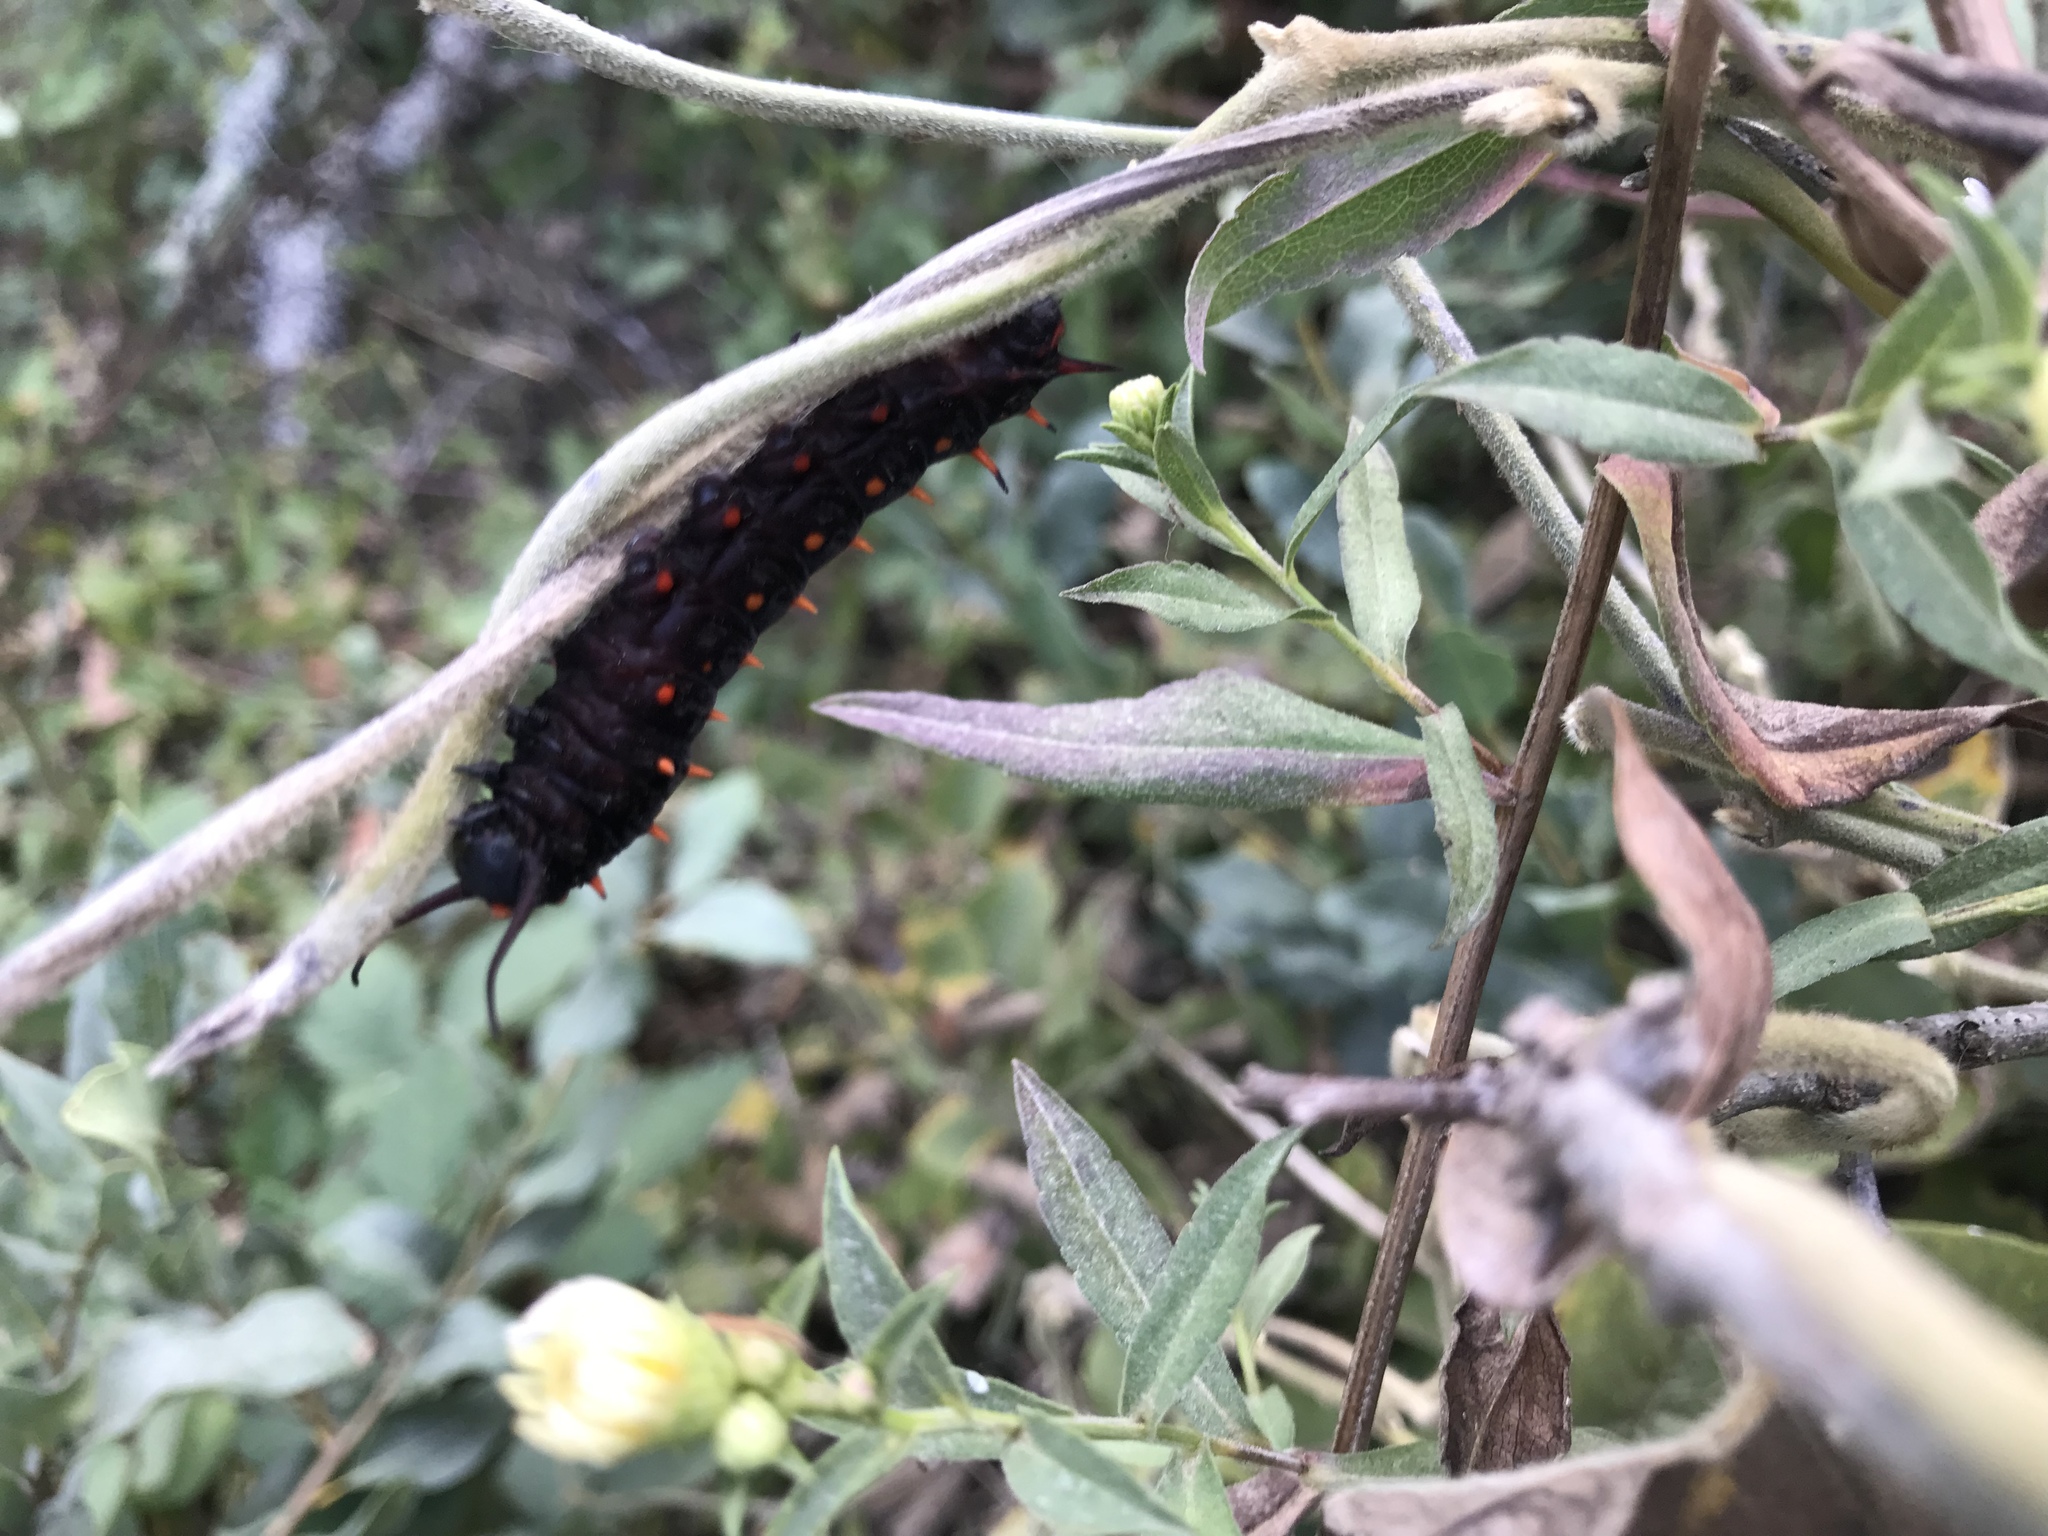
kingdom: Animalia
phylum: Arthropoda
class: Insecta
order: Lepidoptera
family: Papilionidae
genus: Battus
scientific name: Battus philenor
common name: Pipevine swallowtail
